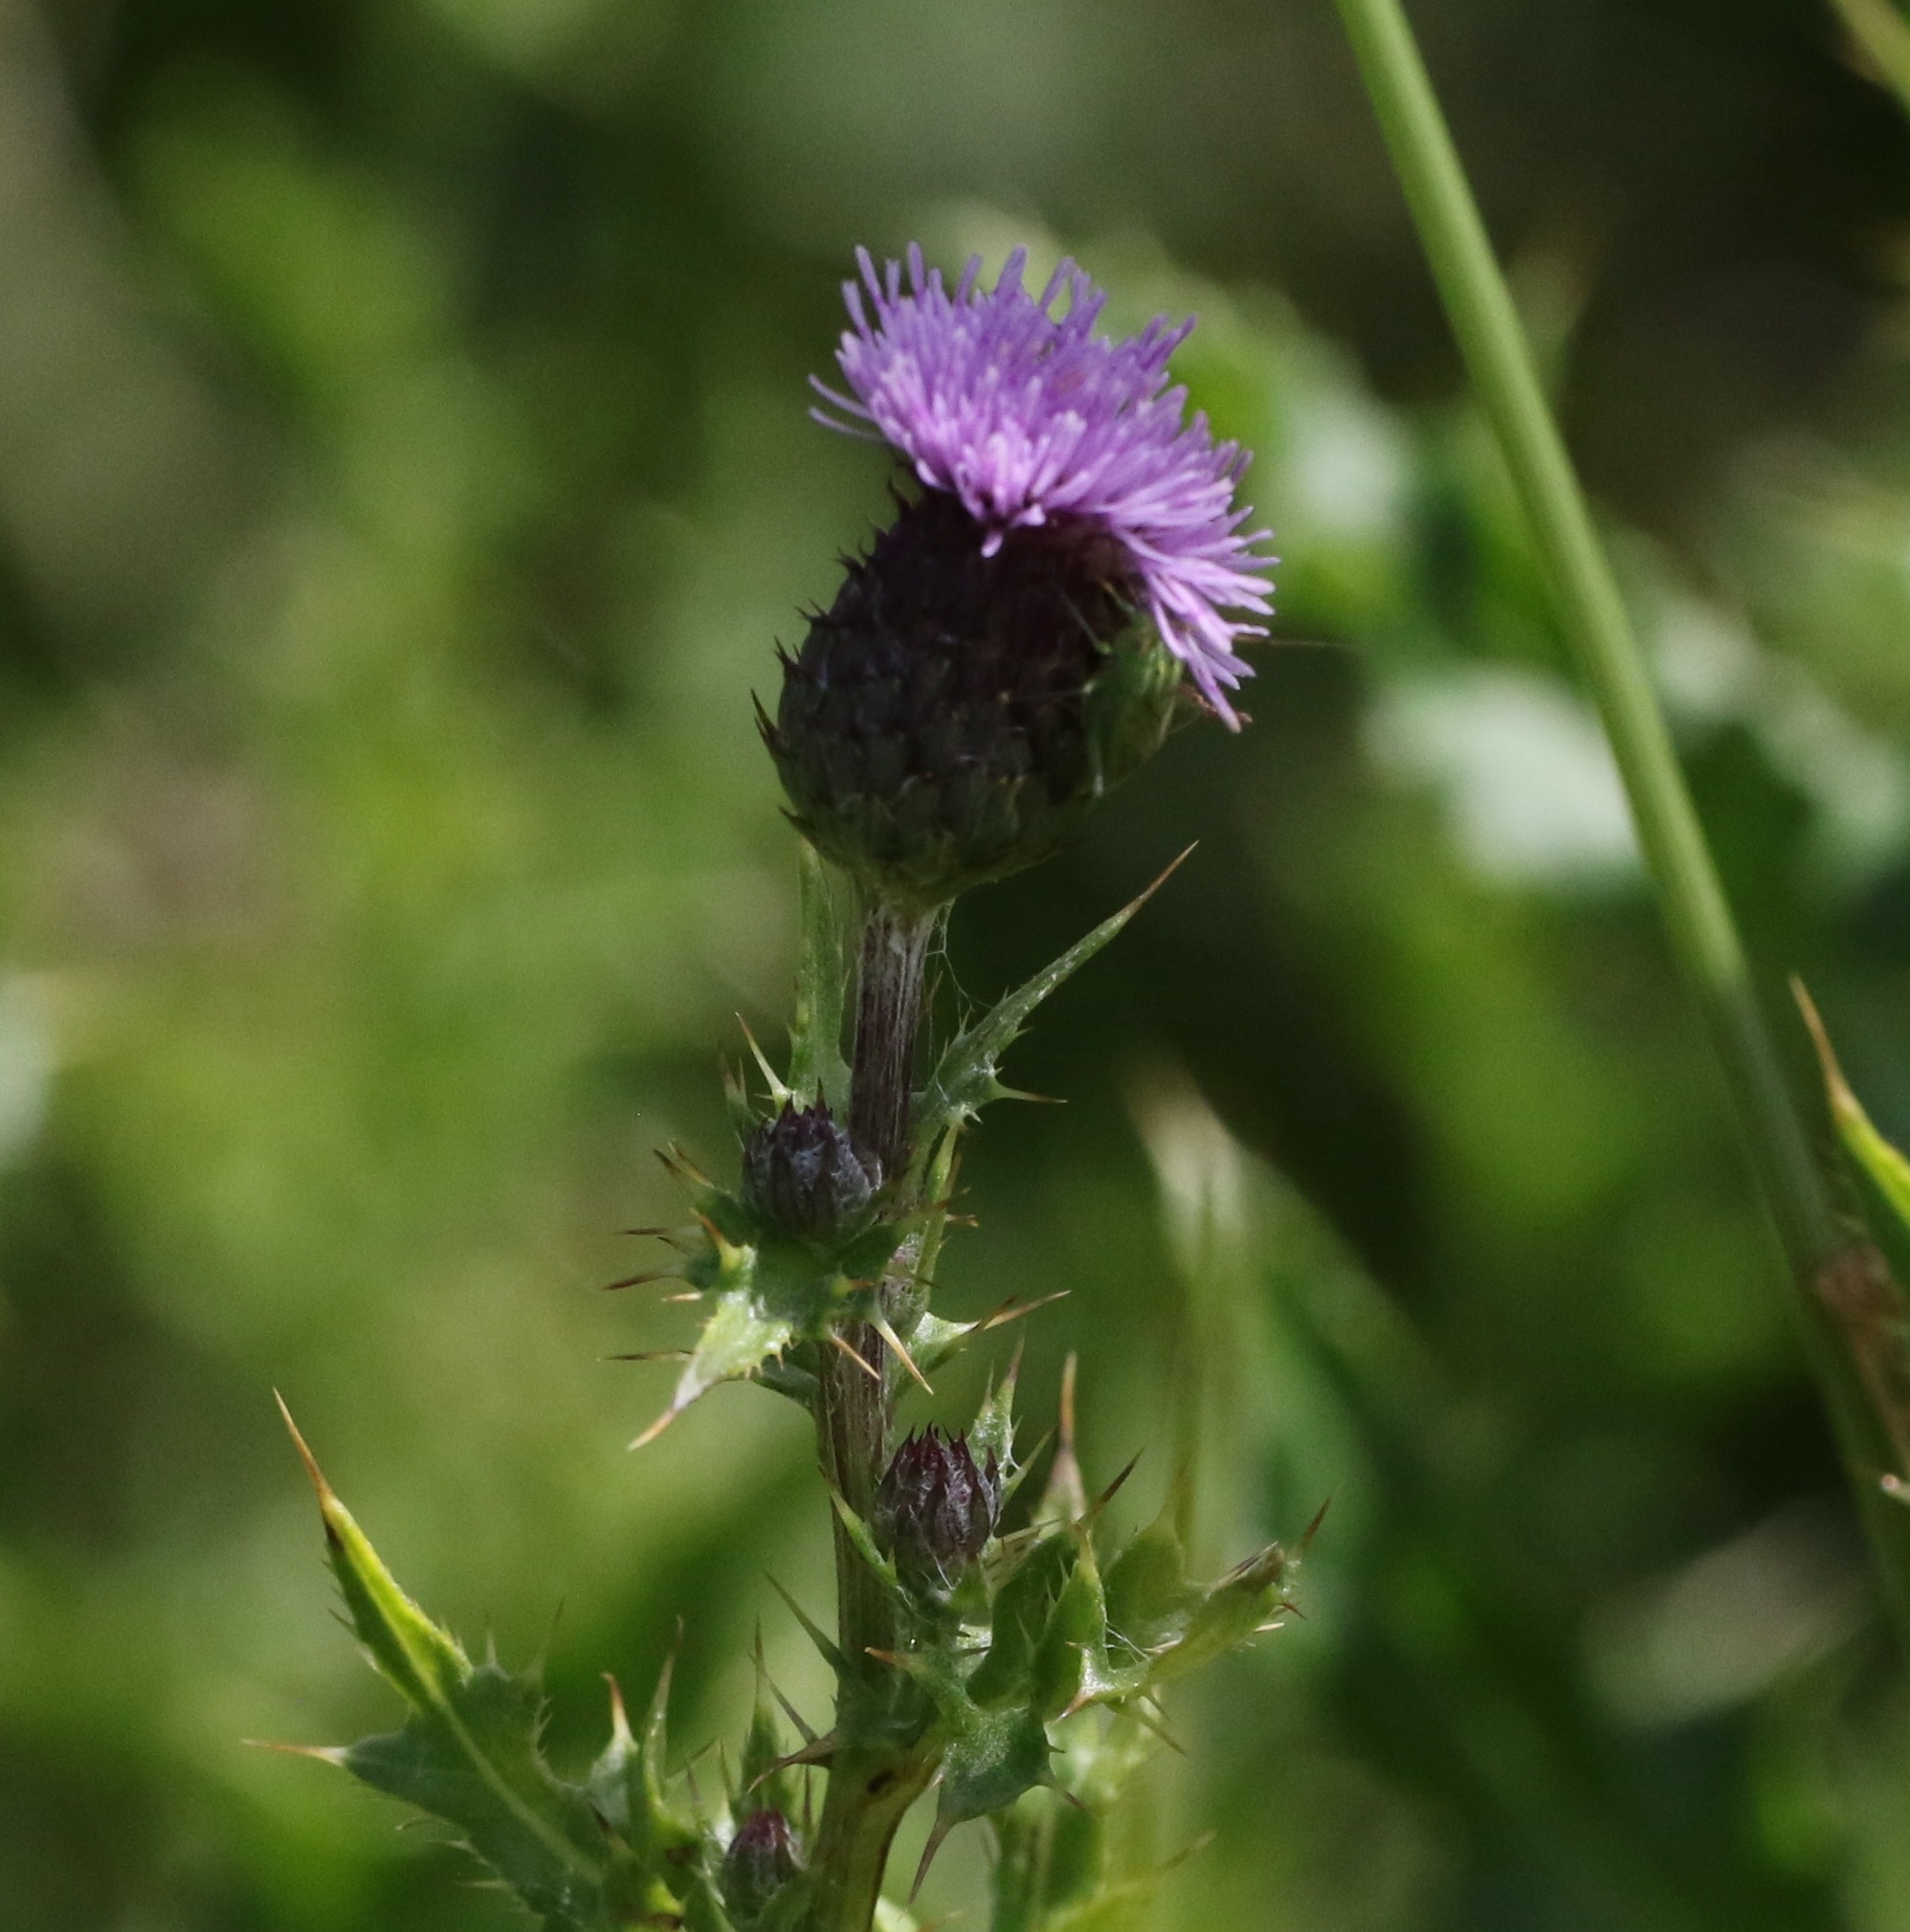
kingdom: Plantae
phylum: Tracheophyta
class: Magnoliopsida
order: Asterales
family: Asteraceae
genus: Cirsium
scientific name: Cirsium arvense
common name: Creeping thistle
